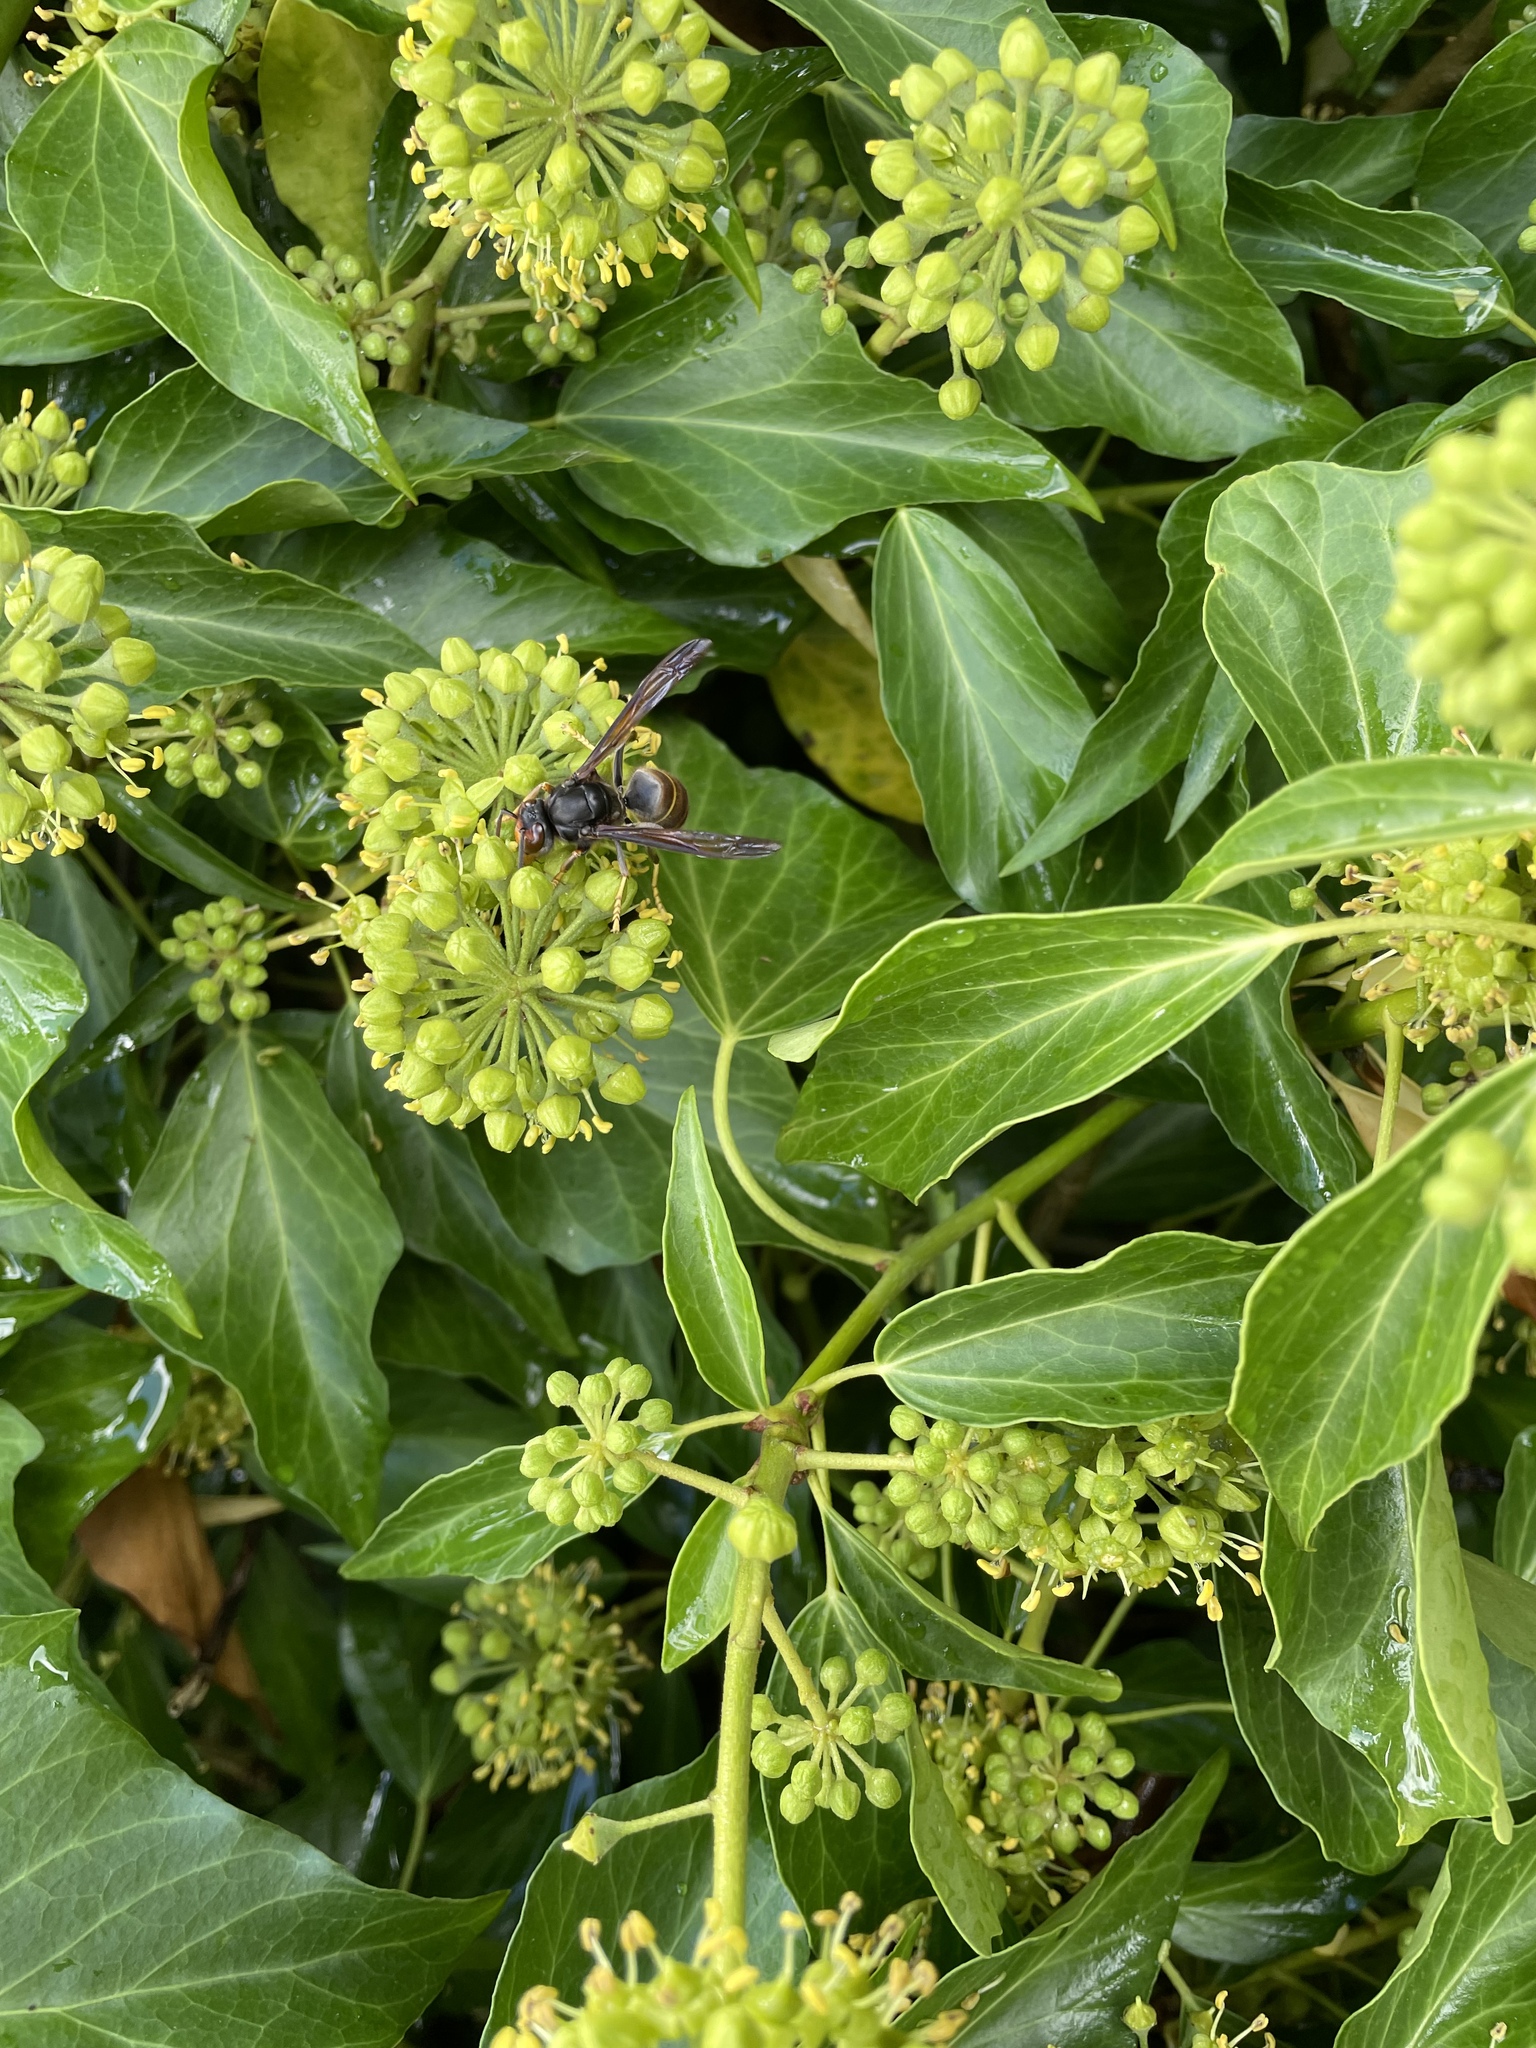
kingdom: Animalia
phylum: Arthropoda
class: Insecta
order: Hymenoptera
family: Vespidae
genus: Vespa
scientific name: Vespa velutina
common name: Asian hornet
